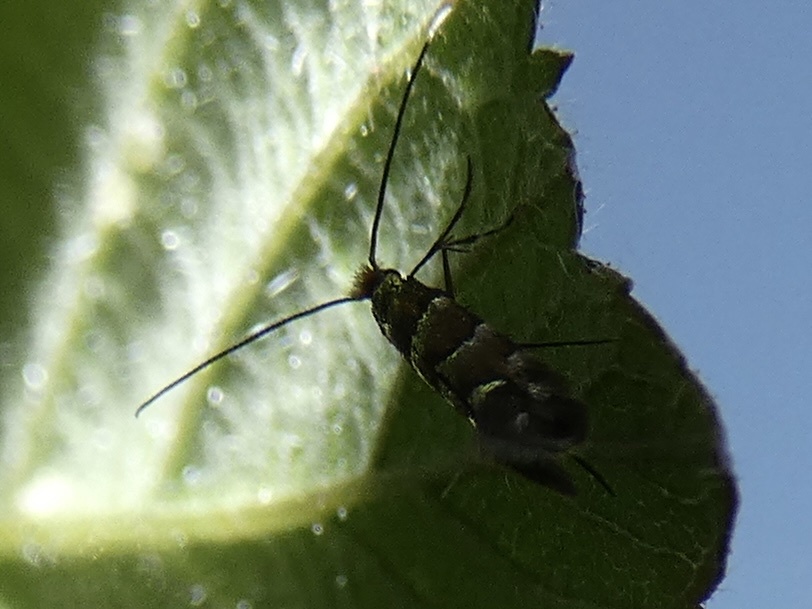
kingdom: Animalia
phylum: Arthropoda
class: Insecta
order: Lepidoptera
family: Gracillariidae
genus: Cameraria
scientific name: Cameraria ohridella
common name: Horse-chestnut leaf-miner
